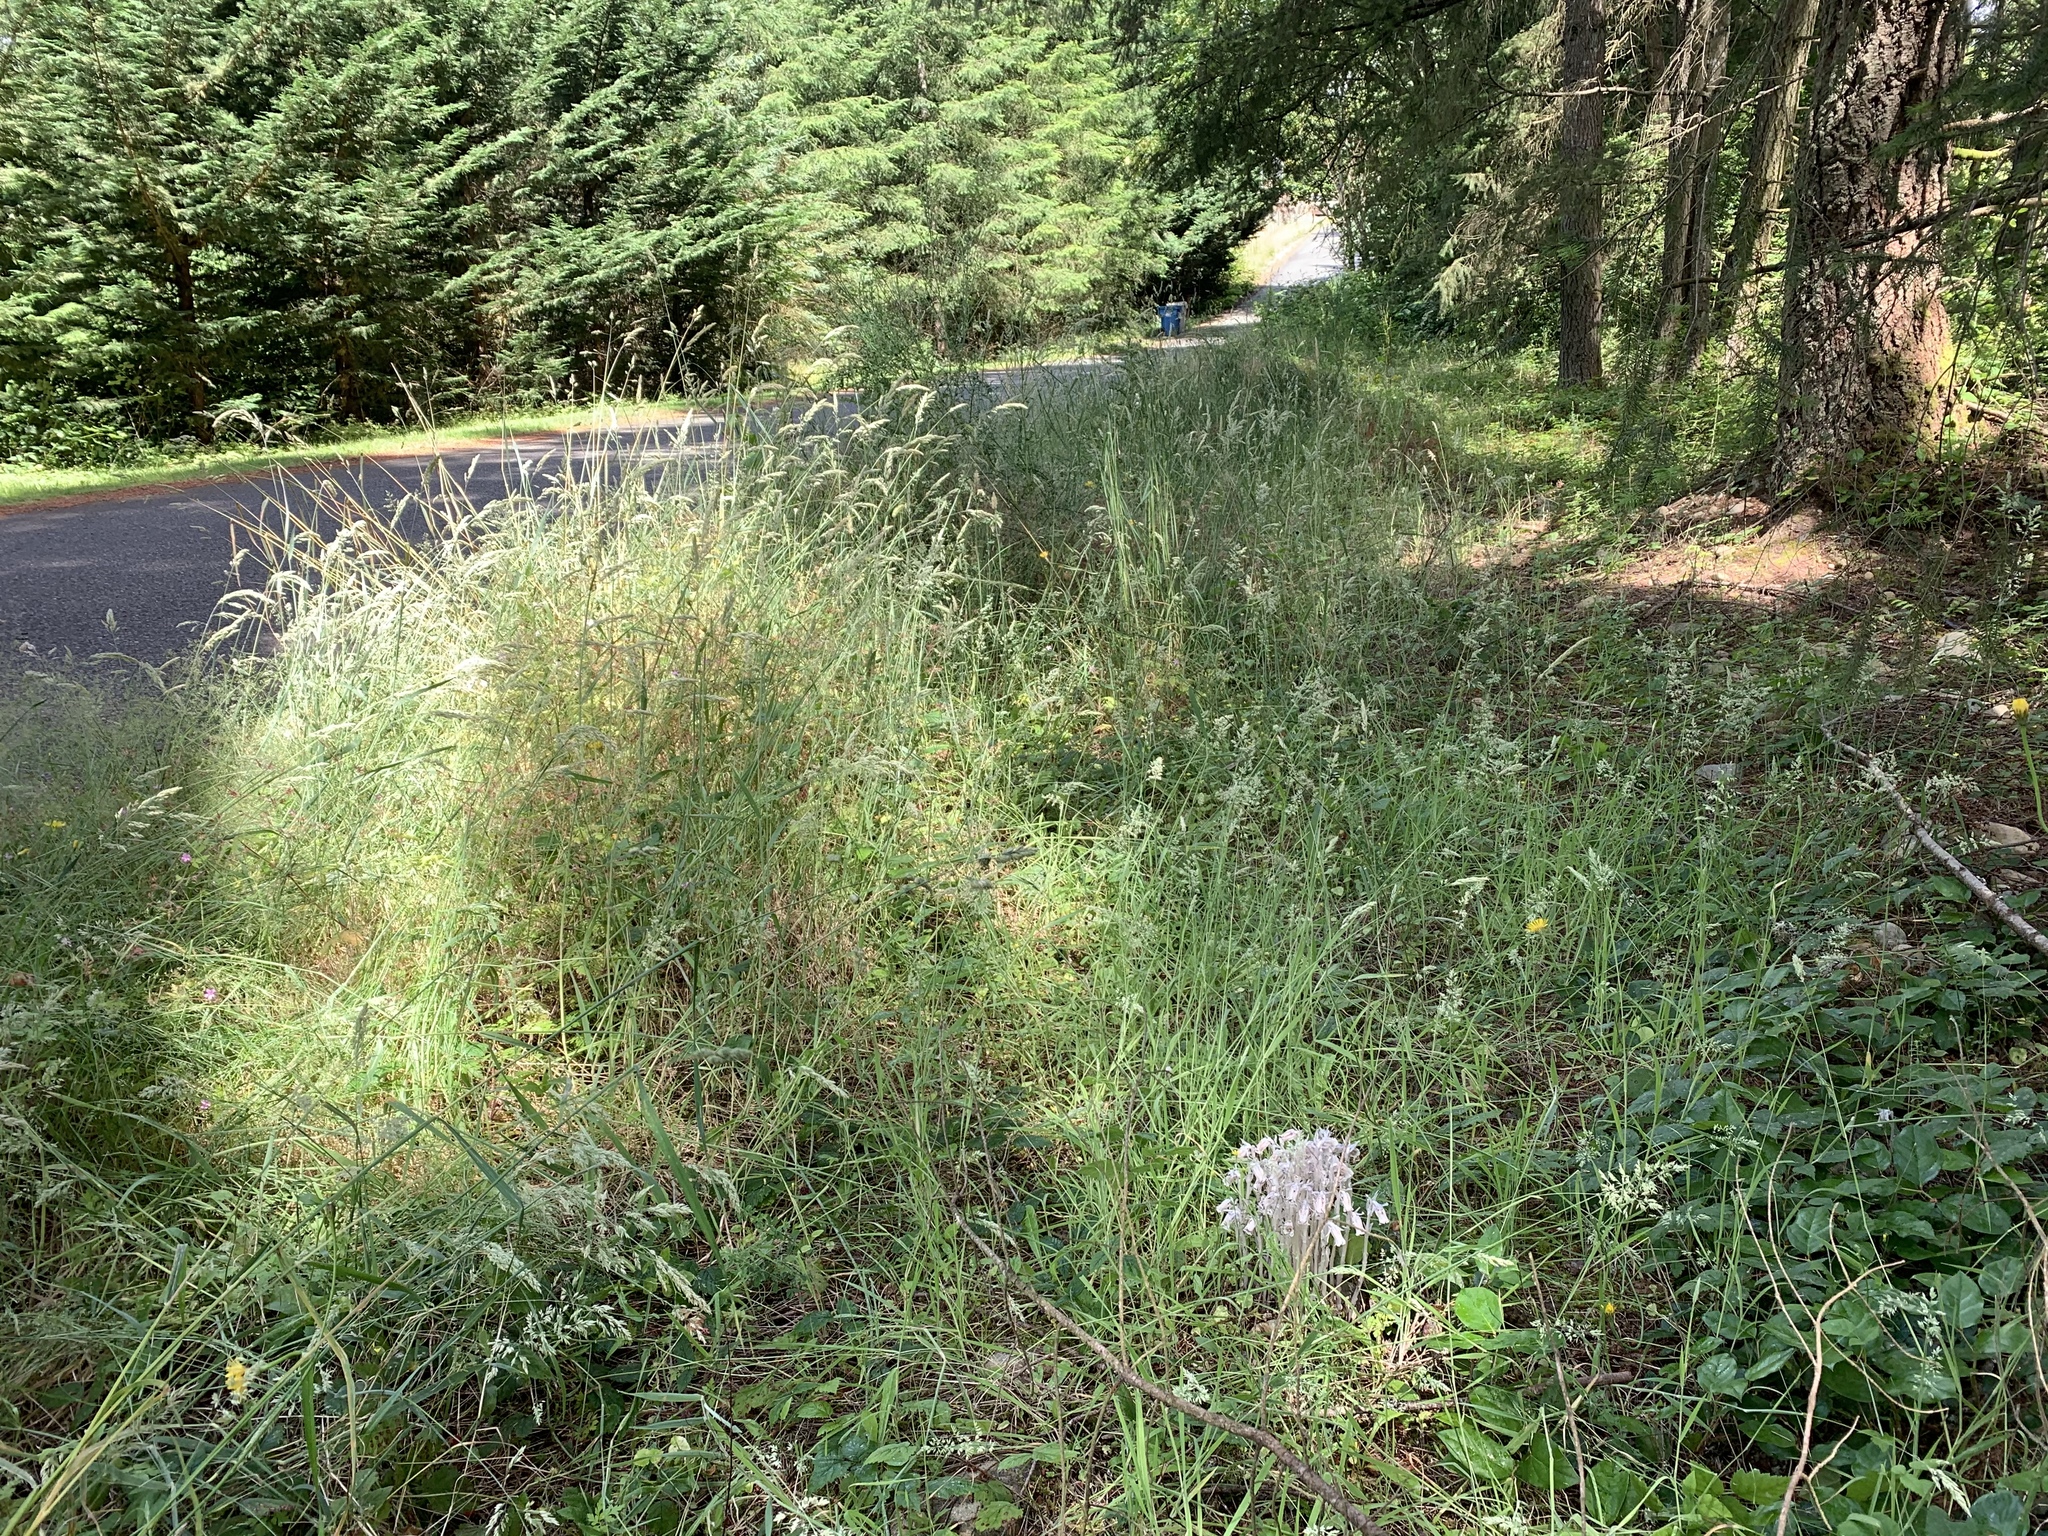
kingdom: Plantae
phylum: Tracheophyta
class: Magnoliopsida
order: Ericales
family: Ericaceae
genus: Monotropa
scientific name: Monotropa uniflora
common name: Convulsion root
